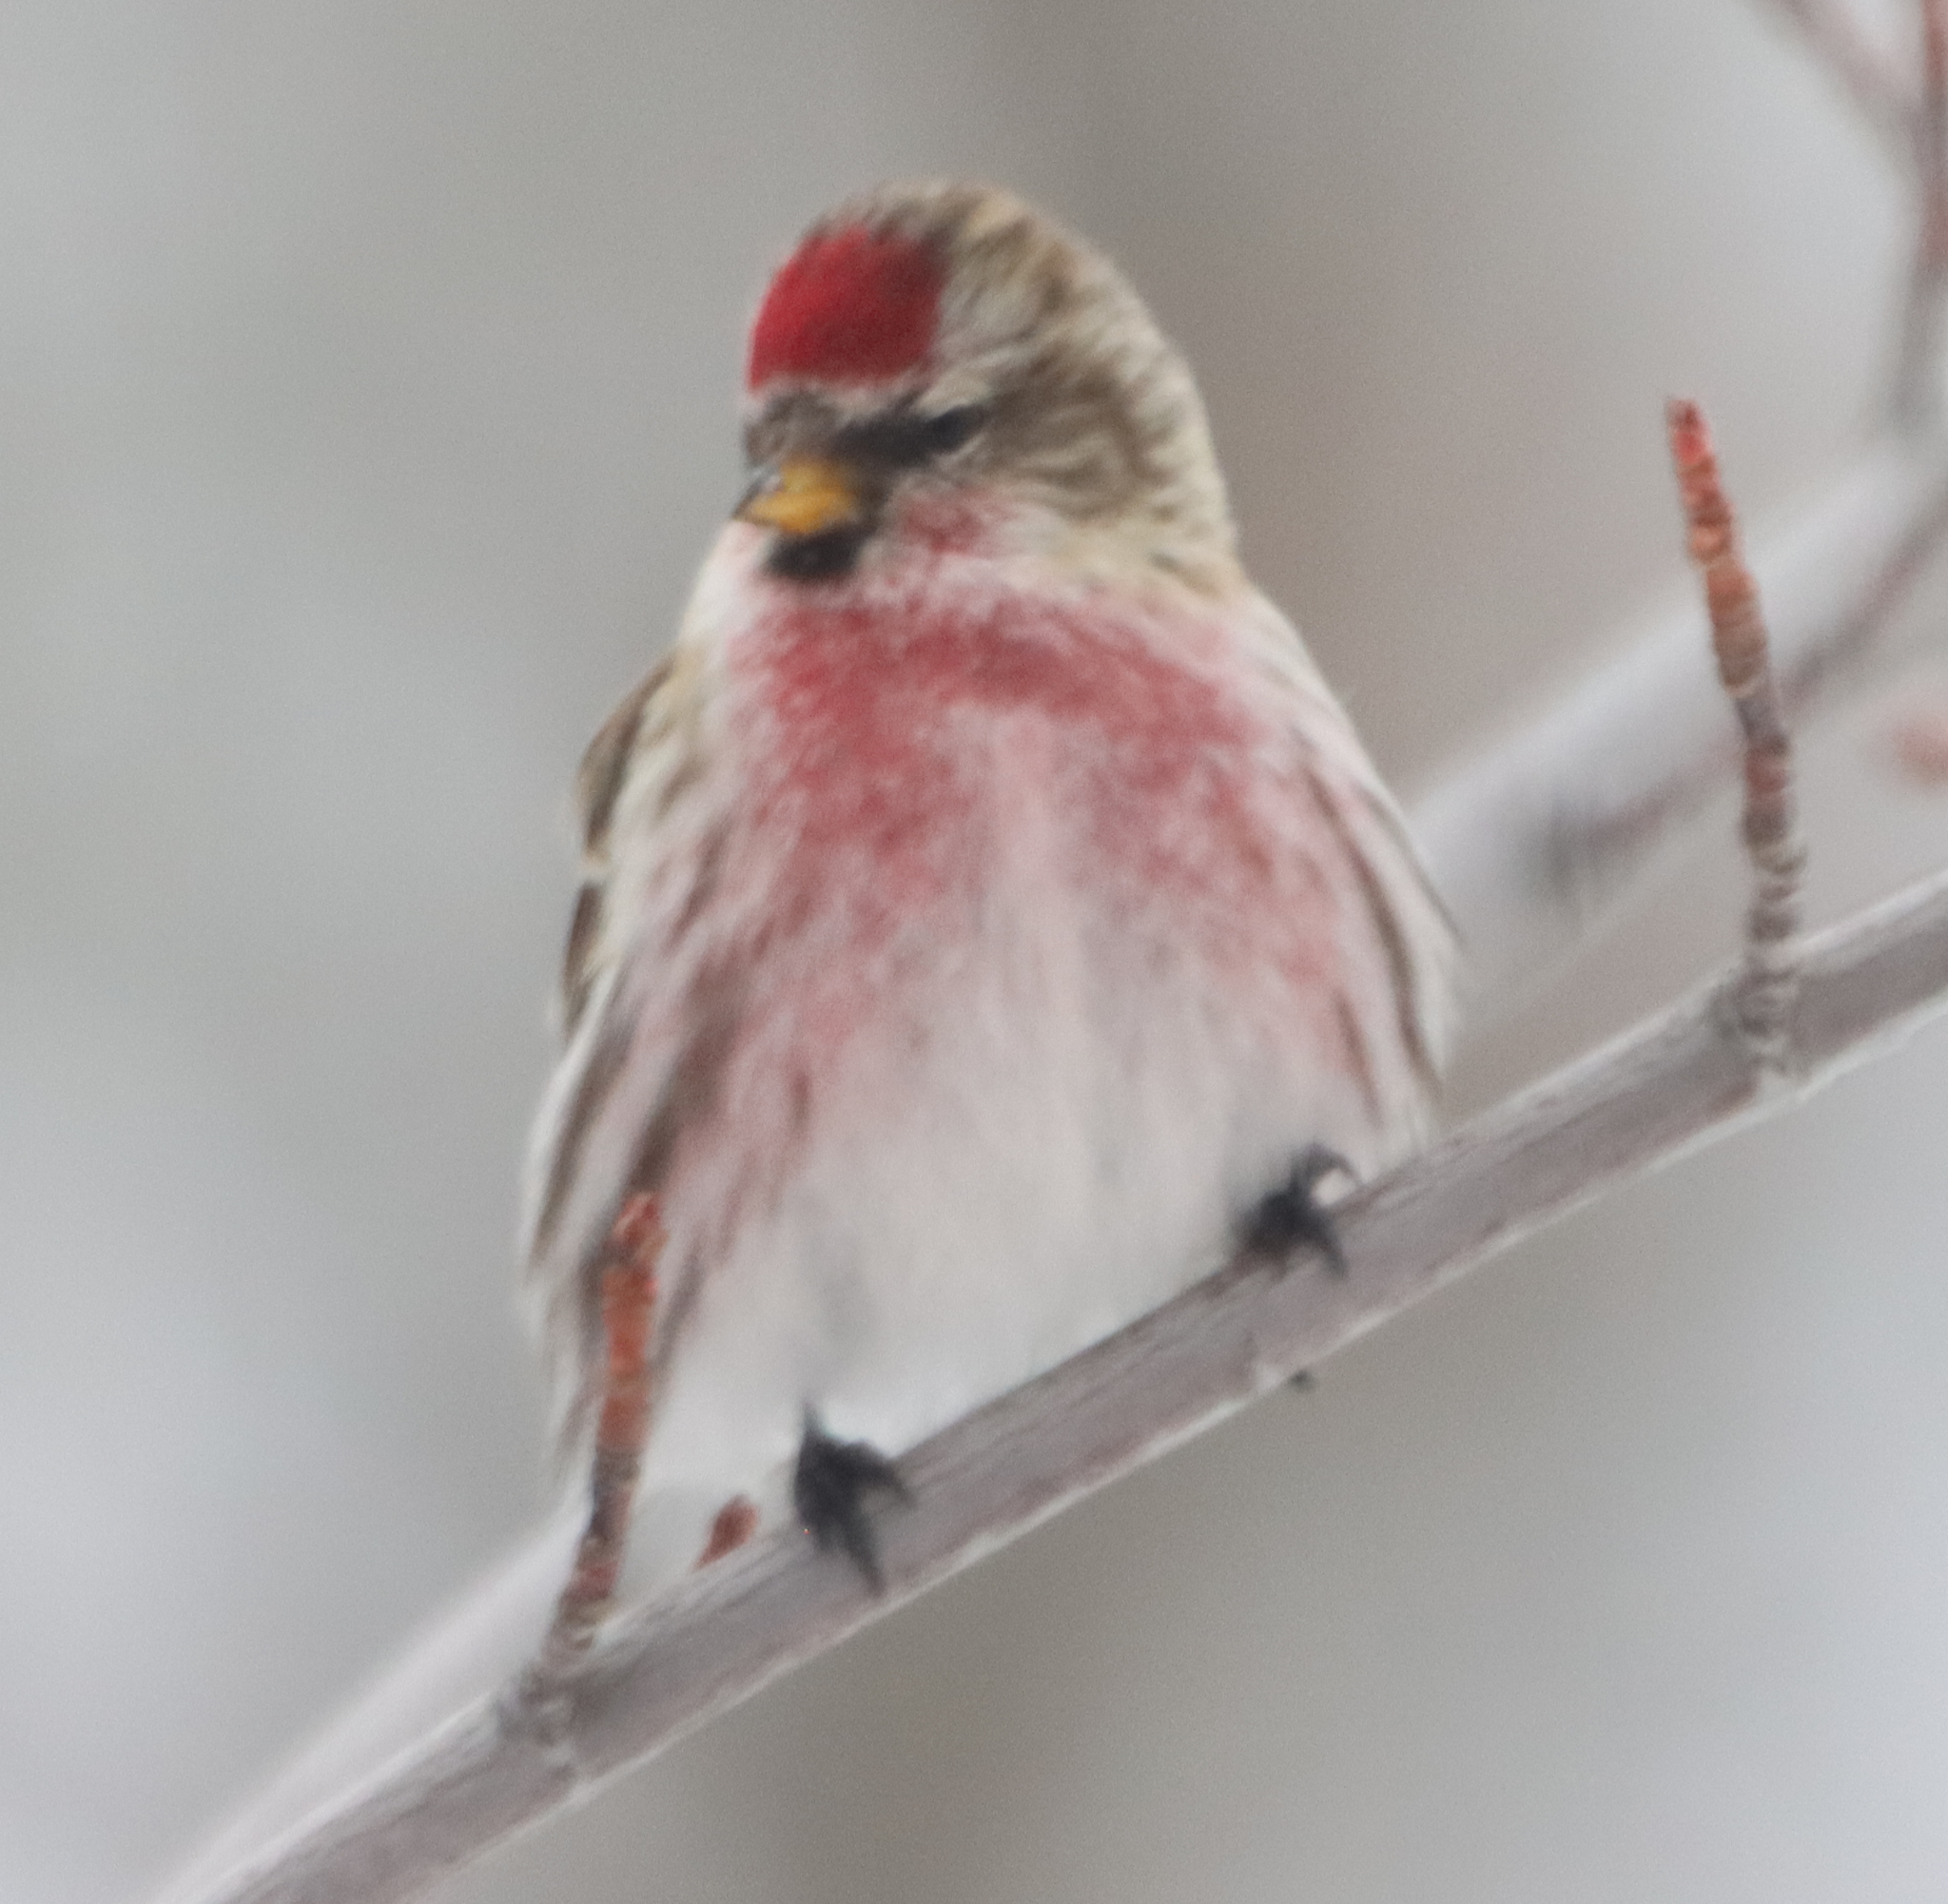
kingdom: Animalia
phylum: Chordata
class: Aves
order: Passeriformes
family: Fringillidae
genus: Acanthis
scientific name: Acanthis flammea
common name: Common redpoll
